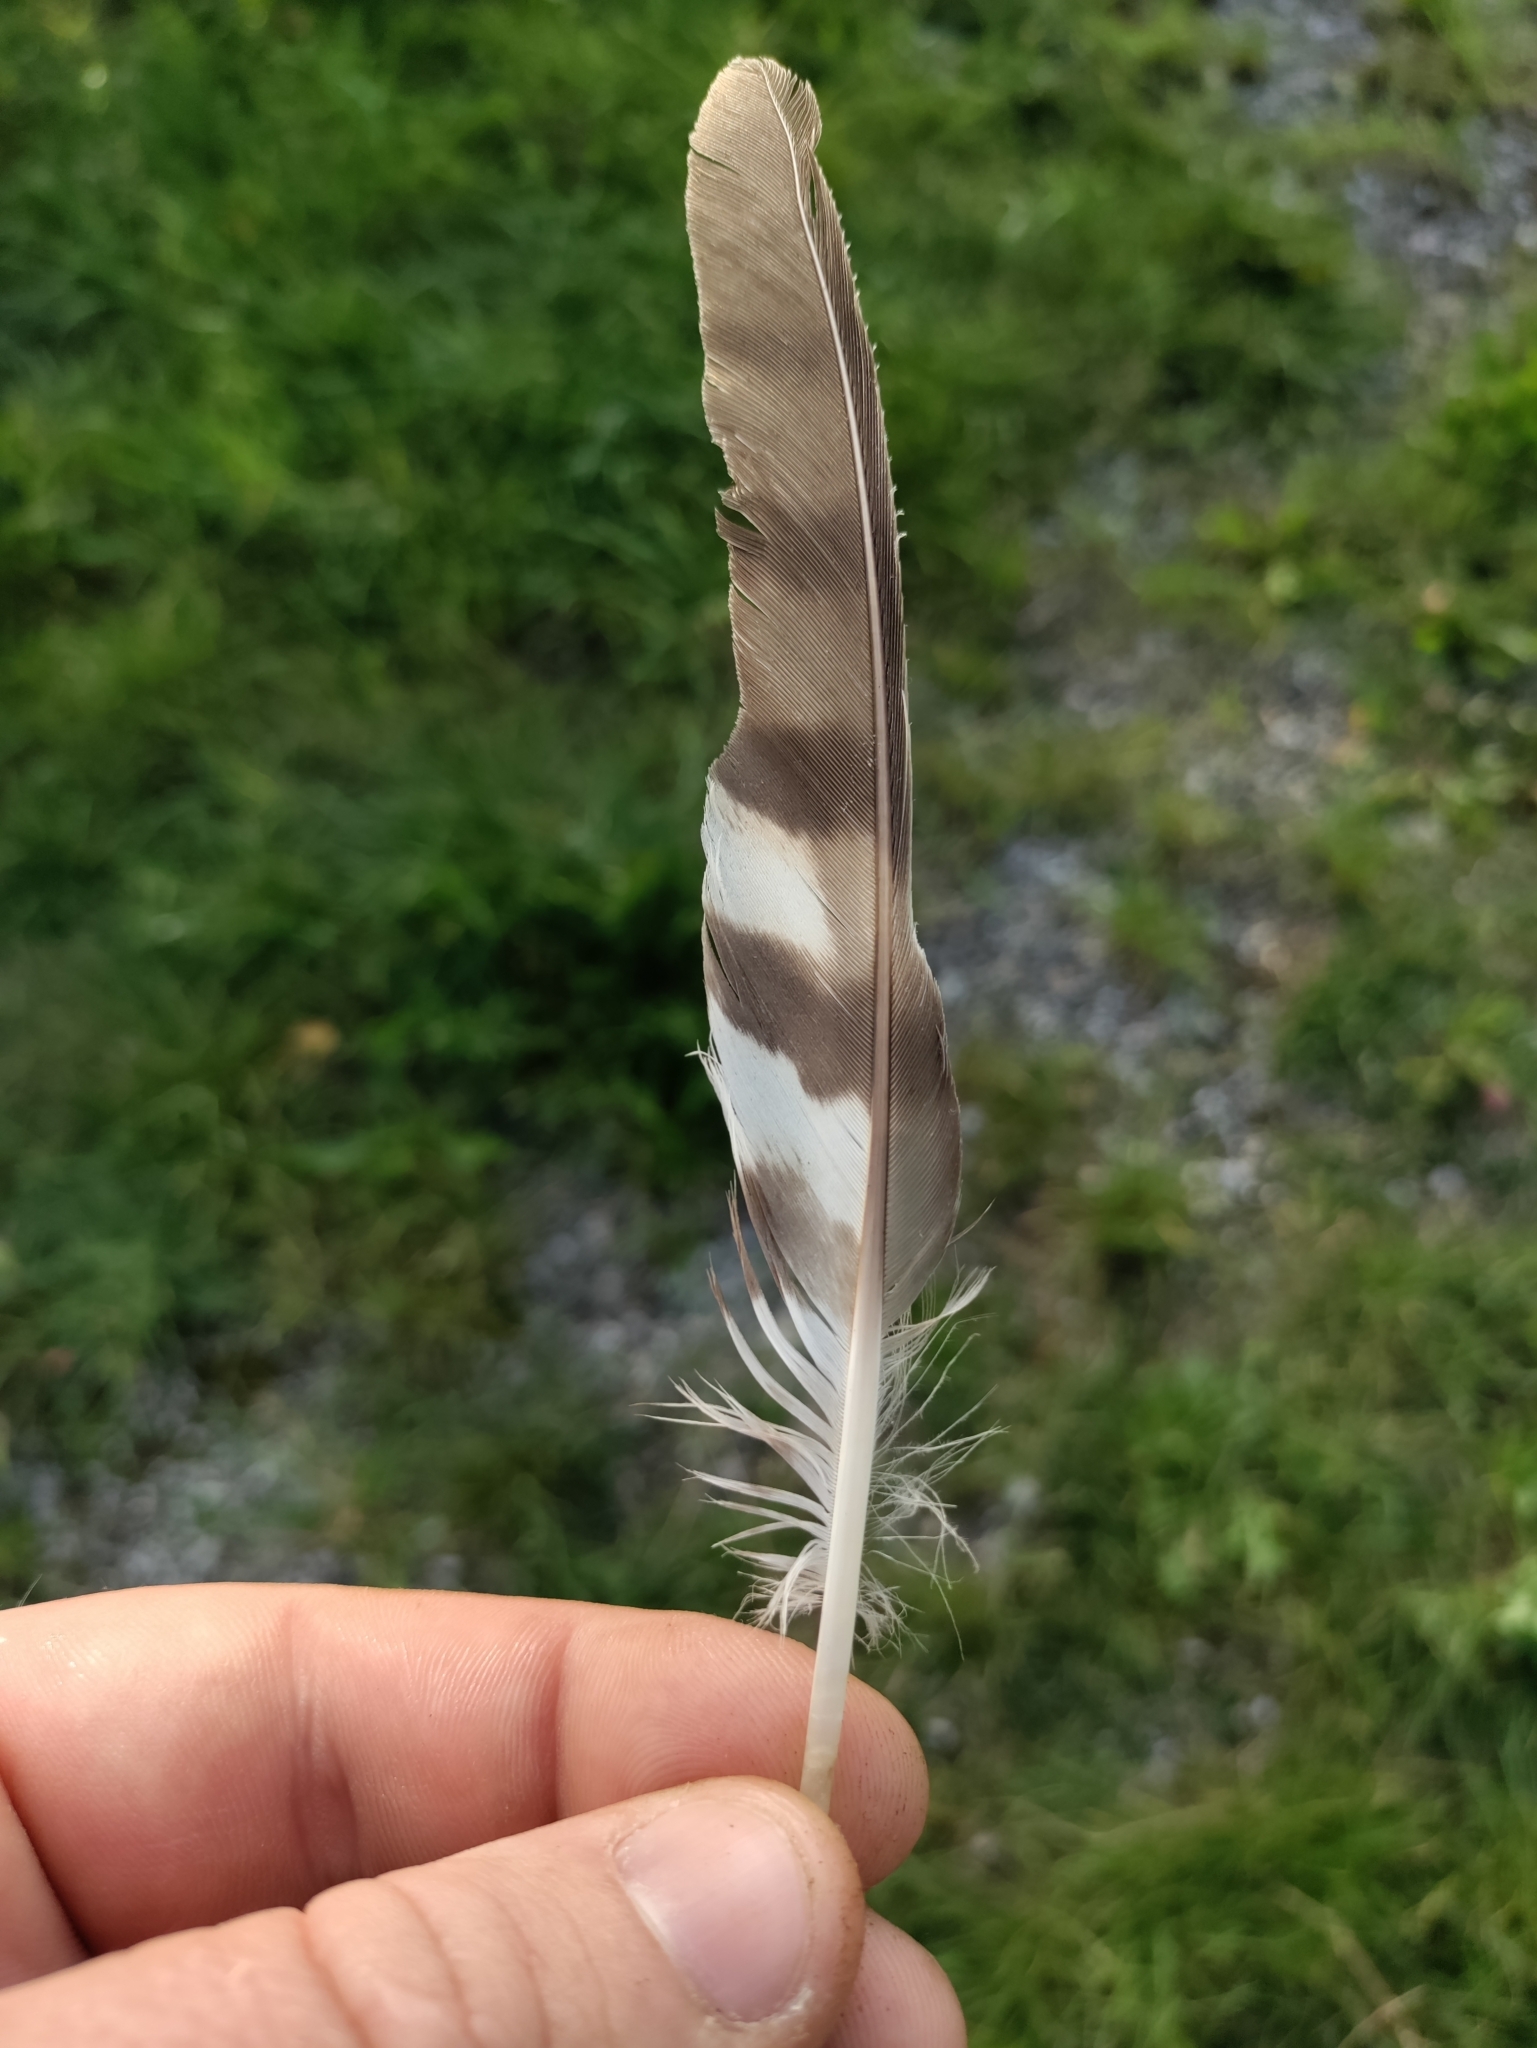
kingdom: Animalia
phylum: Chordata
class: Aves
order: Accipitriformes
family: Accipitridae
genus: Accipiter
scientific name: Accipiter nisus
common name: Eurasian sparrowhawk
